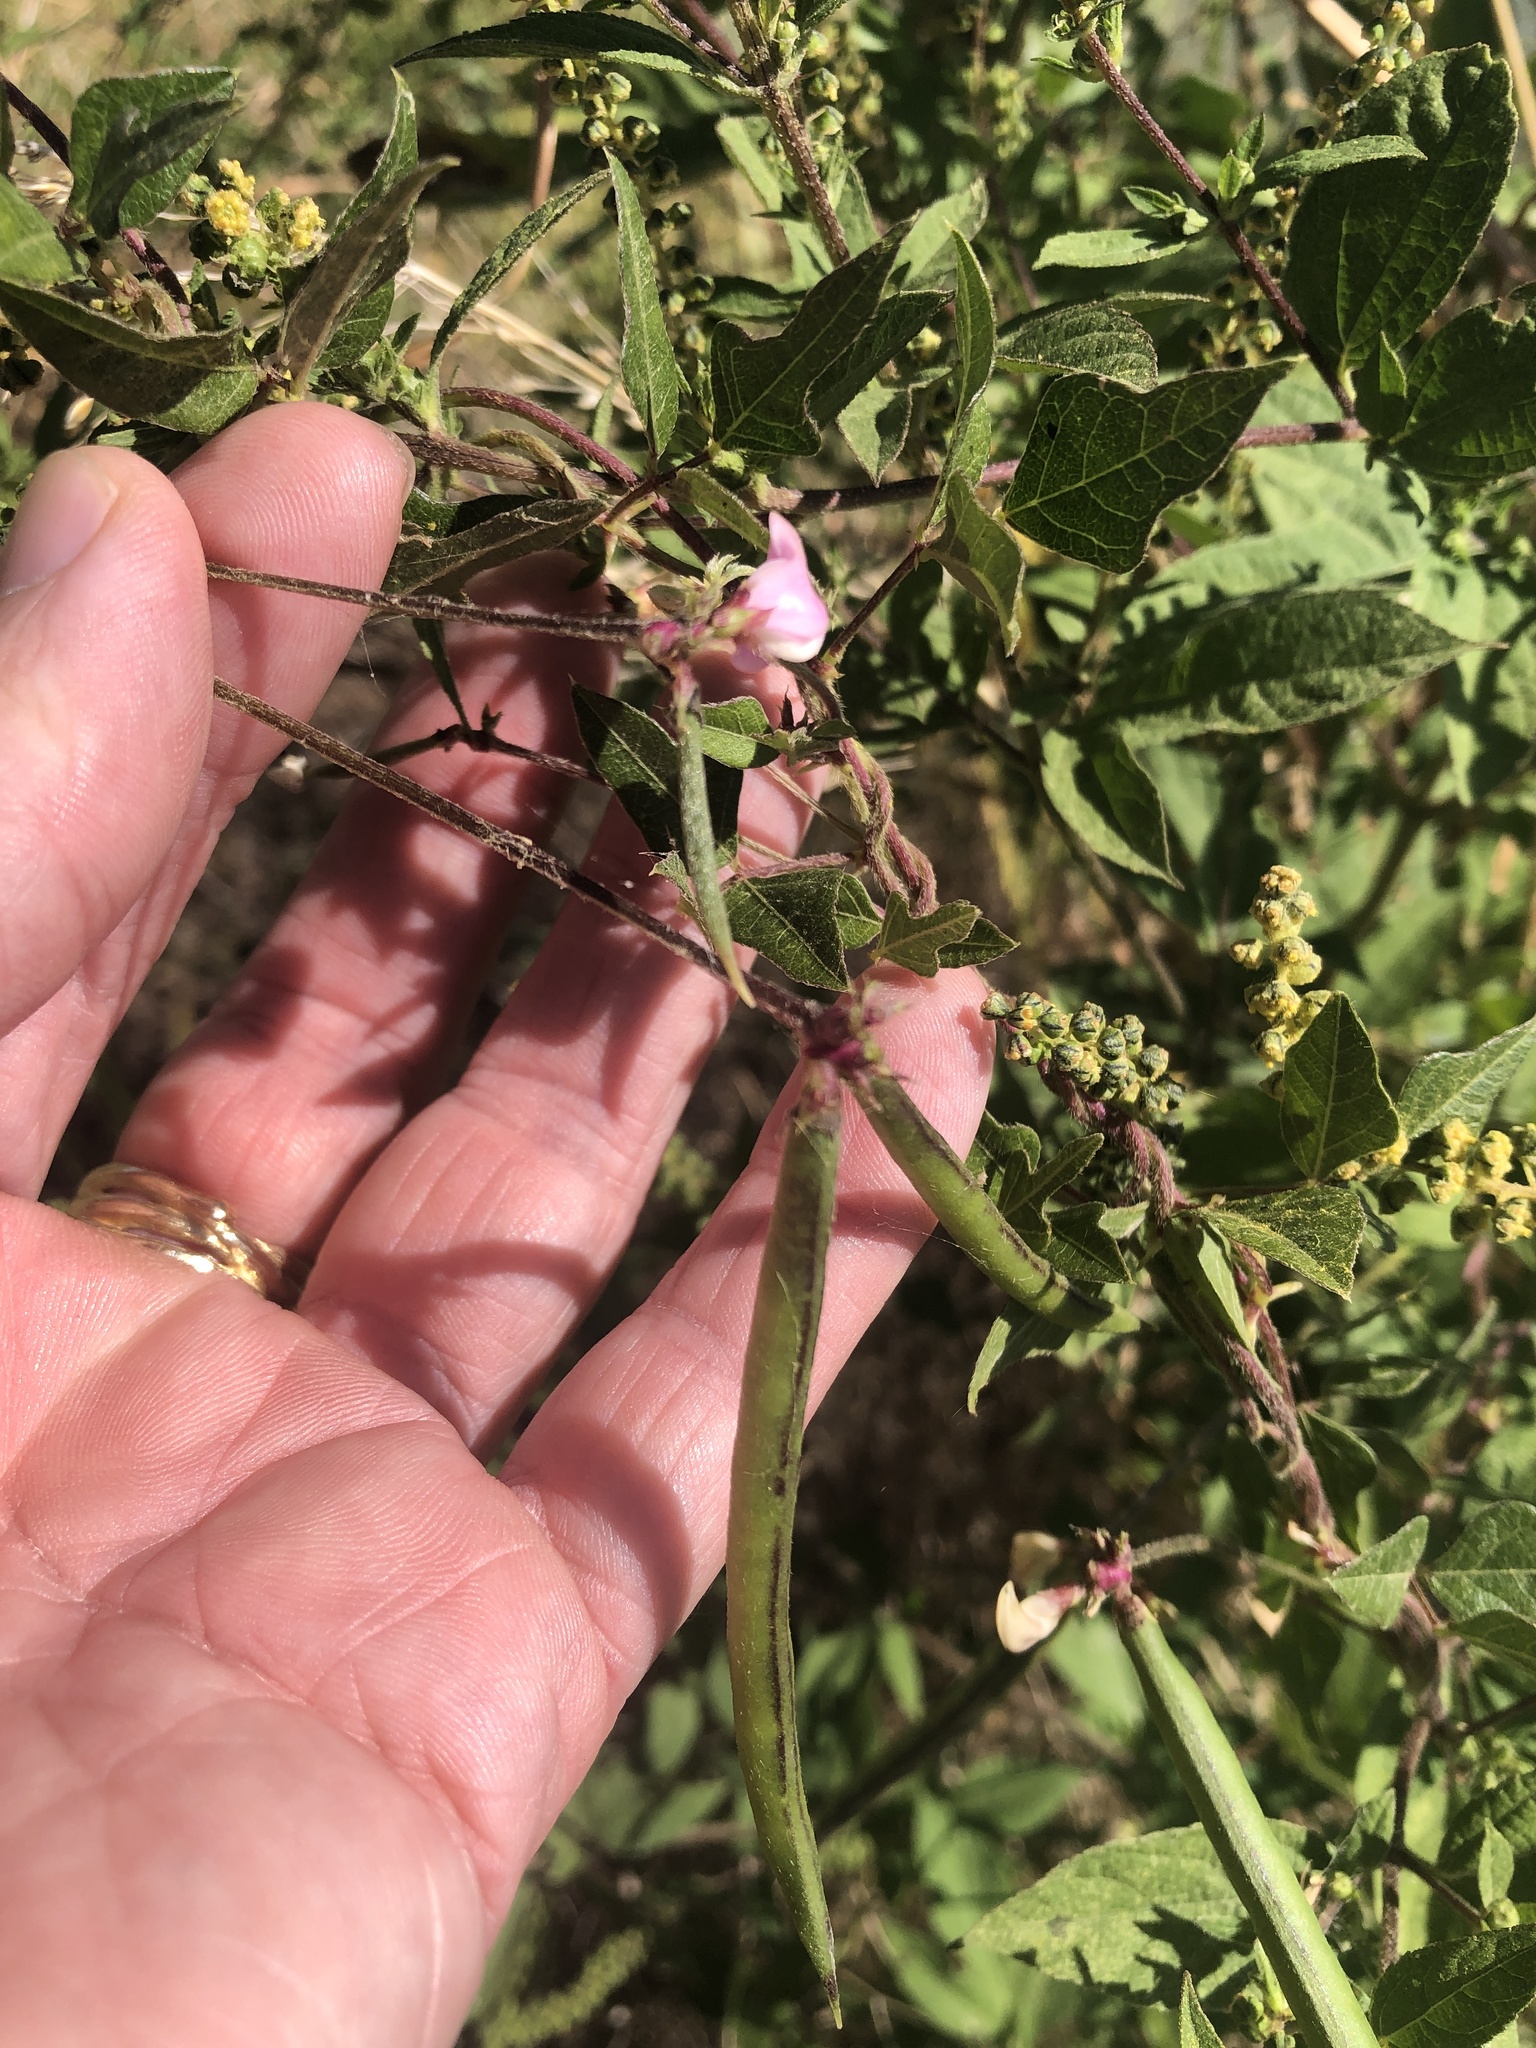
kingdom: Plantae
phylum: Tracheophyta
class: Magnoliopsida
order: Fabales
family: Fabaceae
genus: Strophostyles
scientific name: Strophostyles helvola
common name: Trailing wild bean
